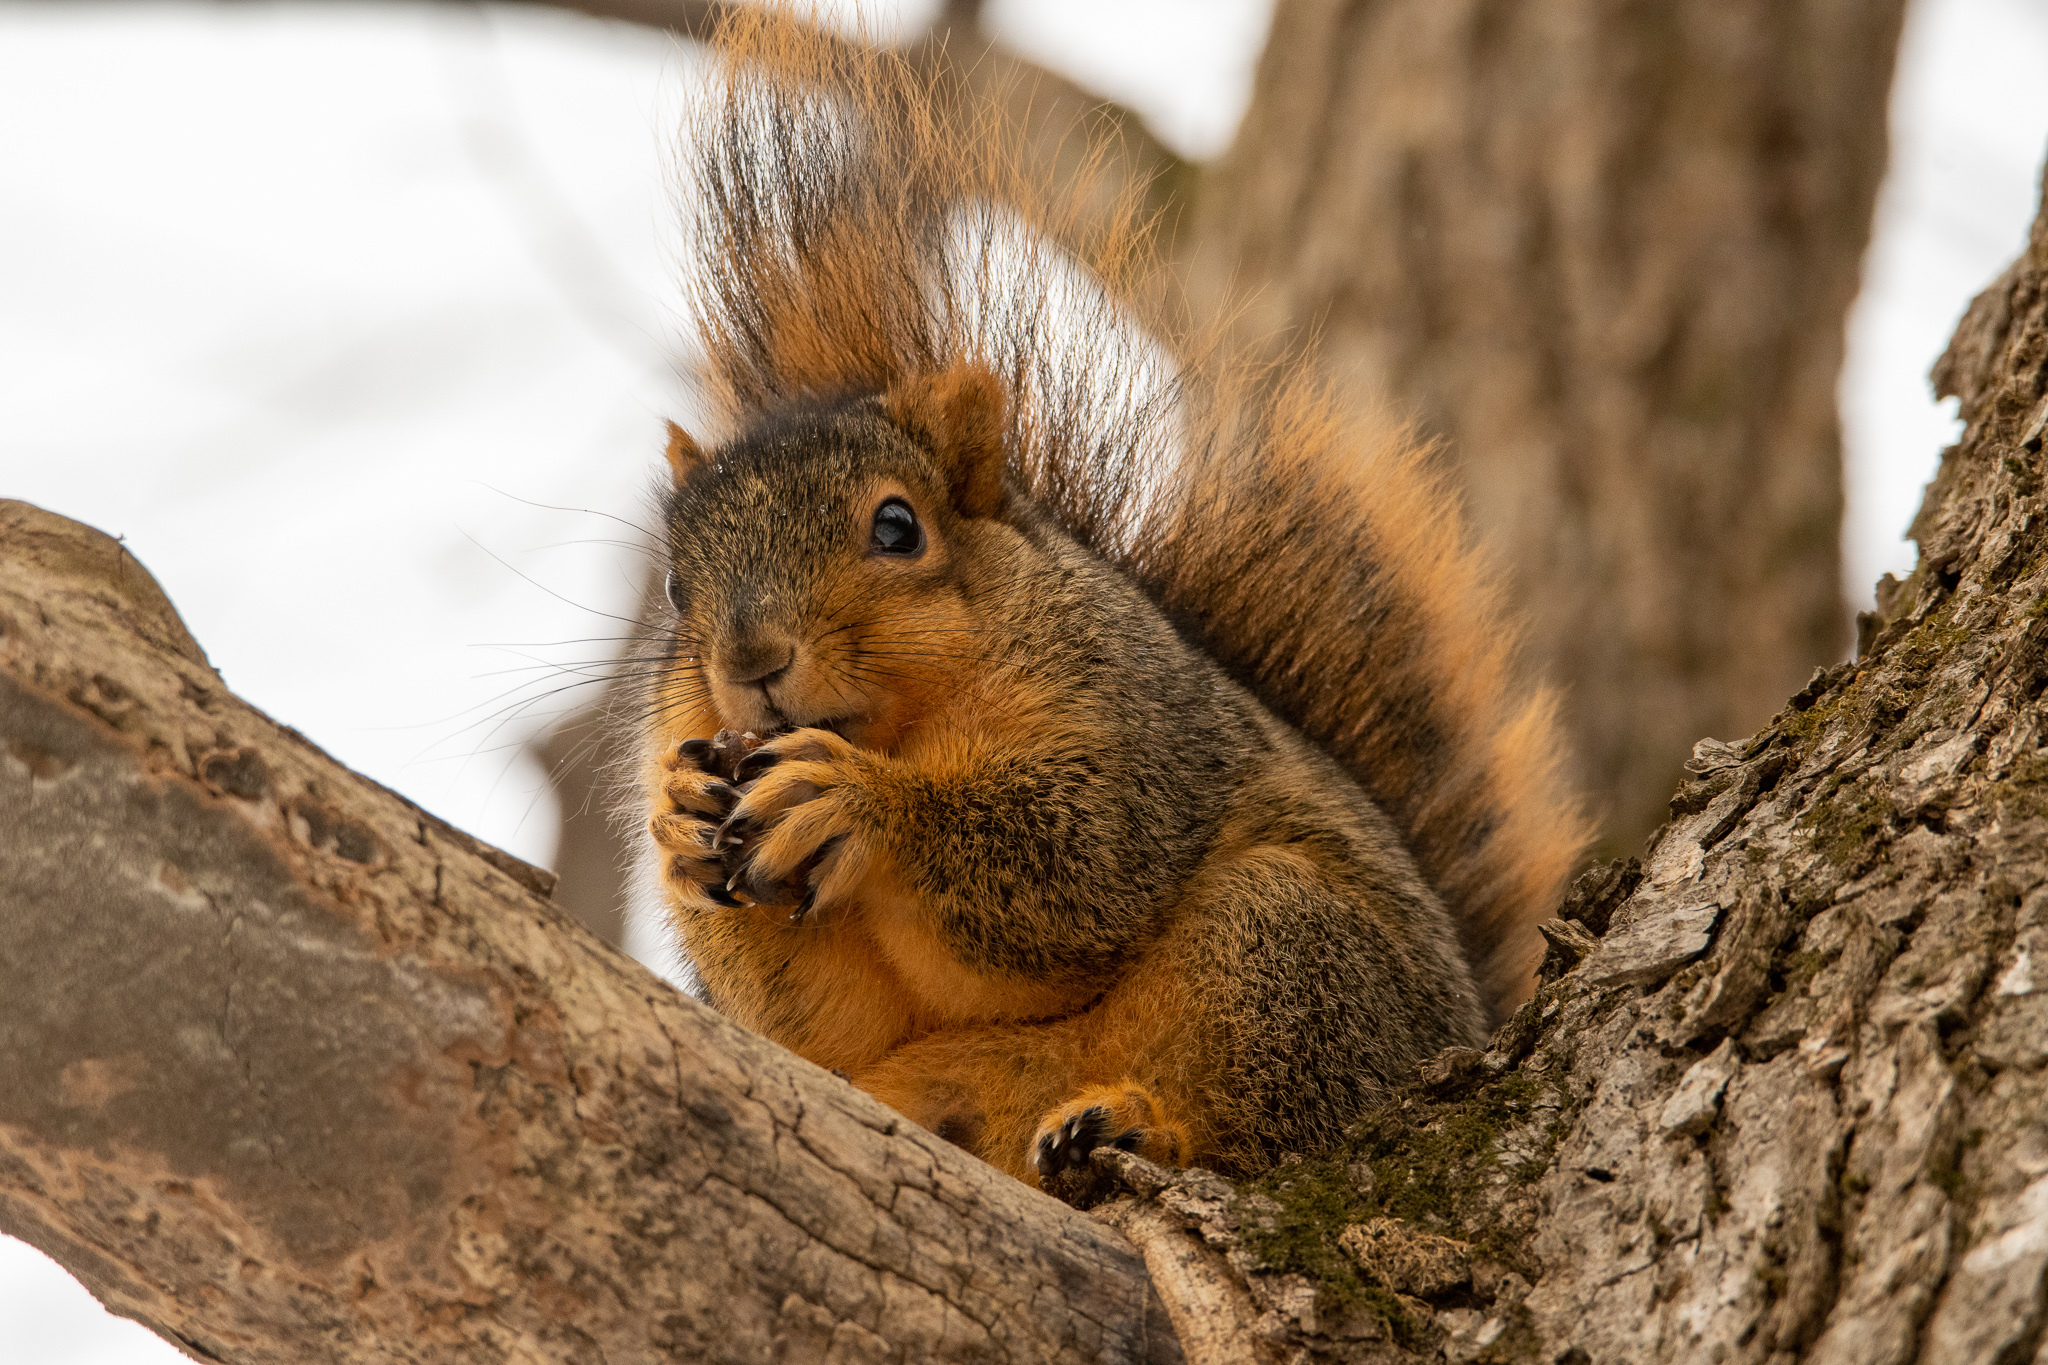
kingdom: Animalia
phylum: Chordata
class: Mammalia
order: Rodentia
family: Sciuridae
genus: Sciurus
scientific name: Sciurus niger
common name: Fox squirrel
